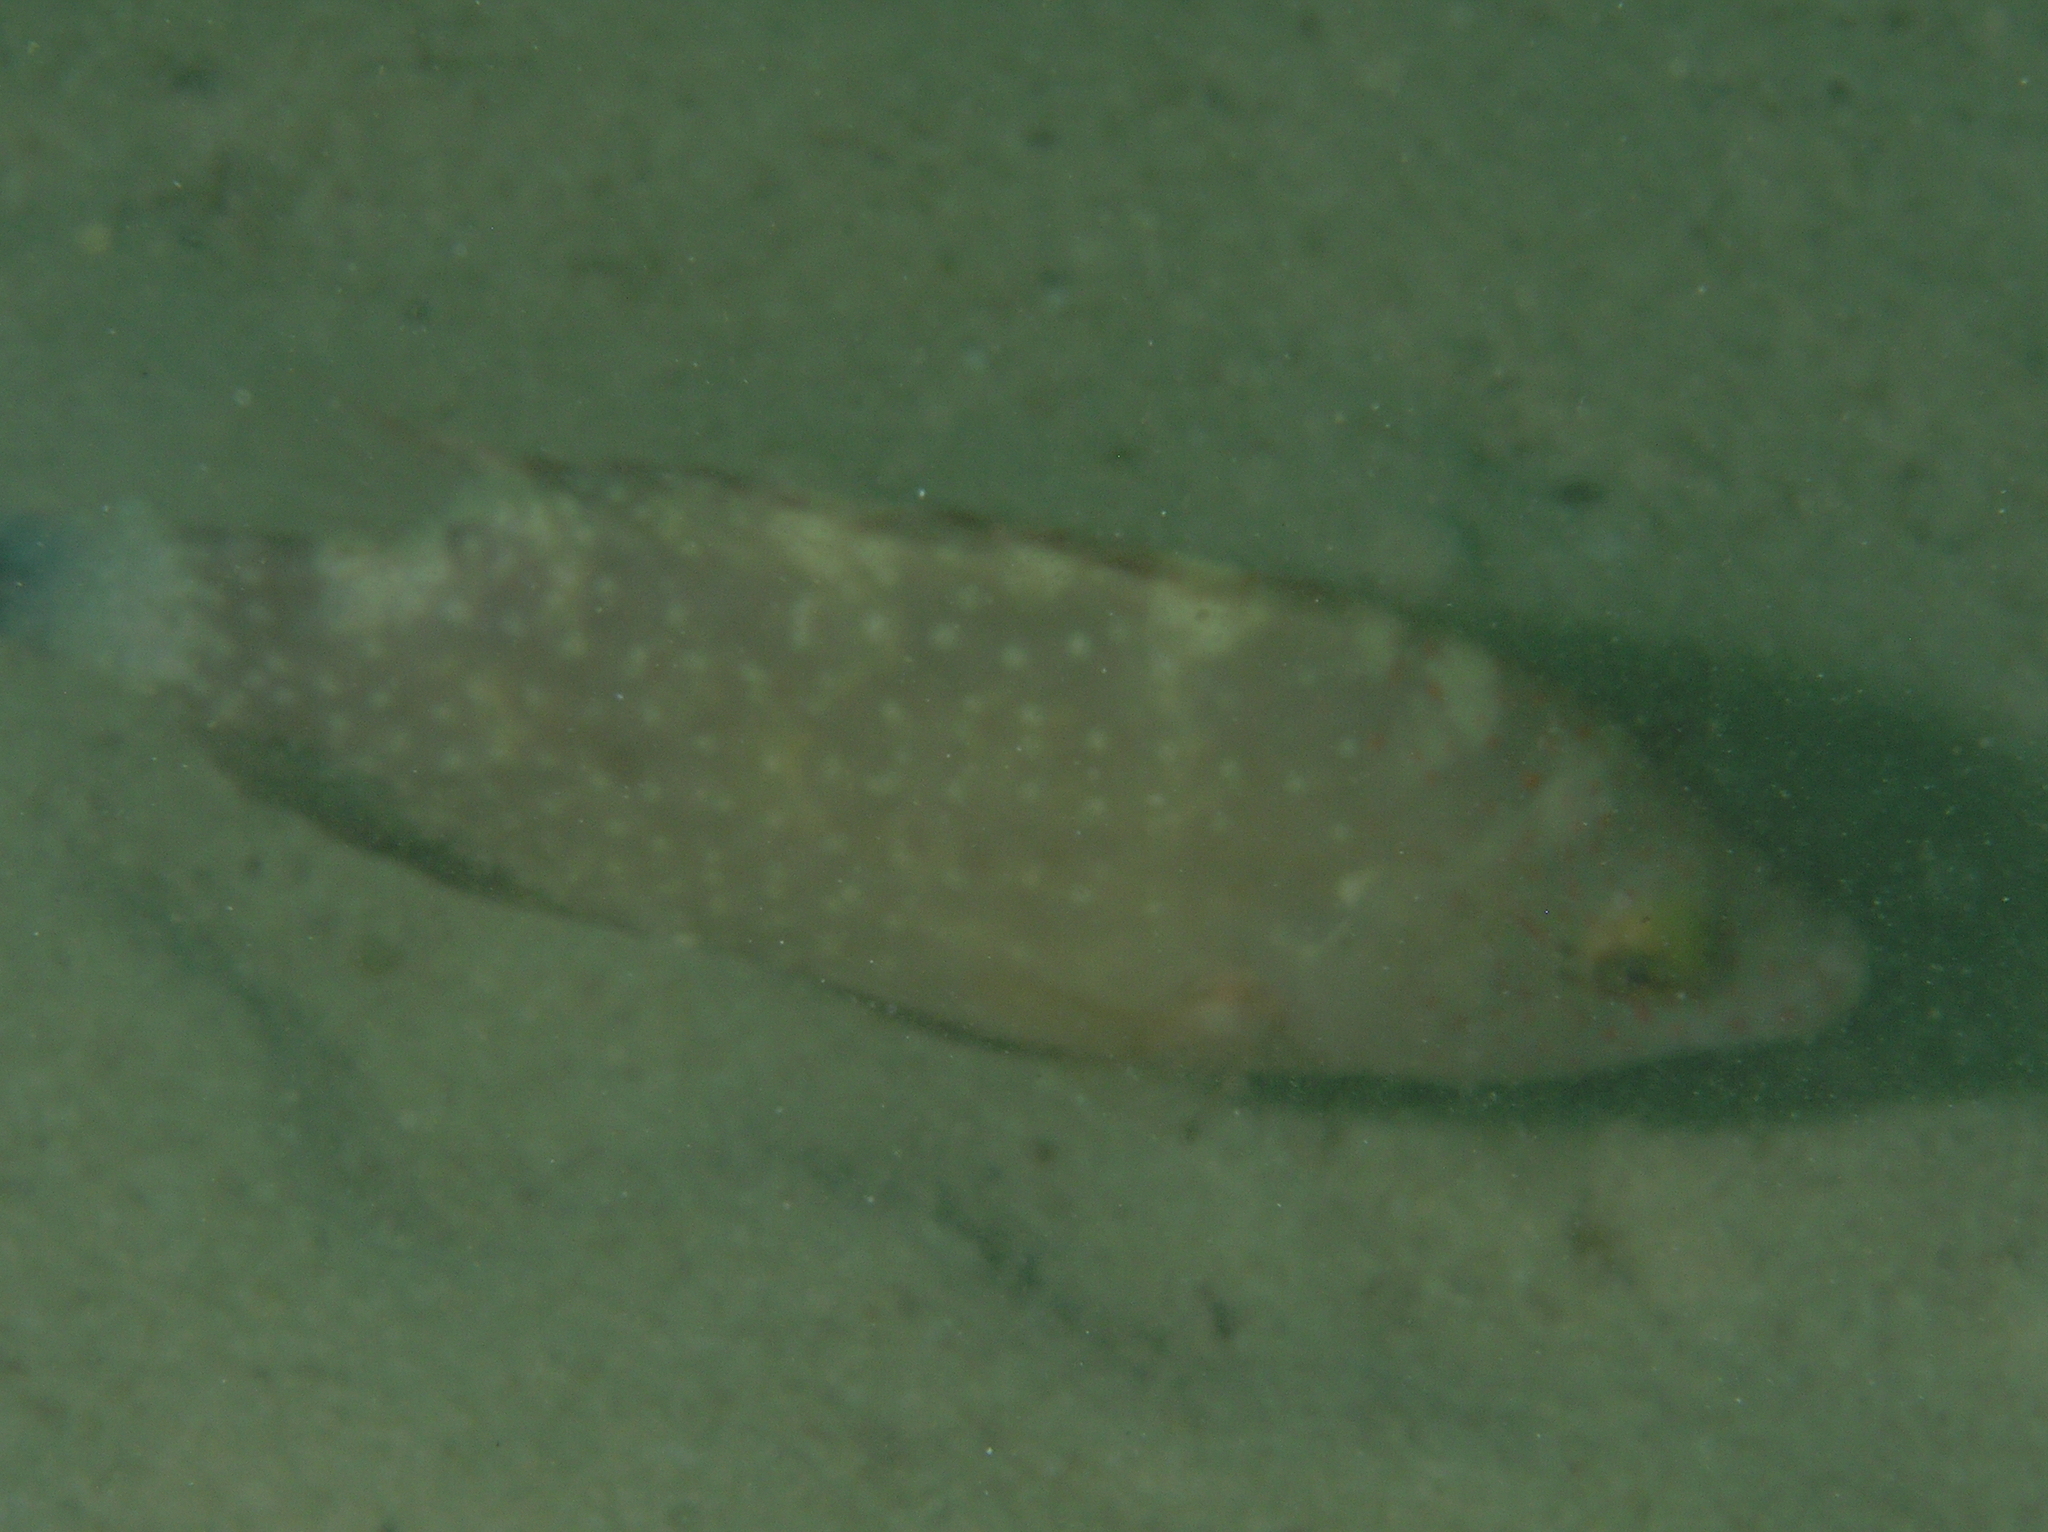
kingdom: Animalia
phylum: Chordata
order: Perciformes
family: Labridae
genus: Cheilinus
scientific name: Cheilinus chlorourus
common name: Floral wrasse
